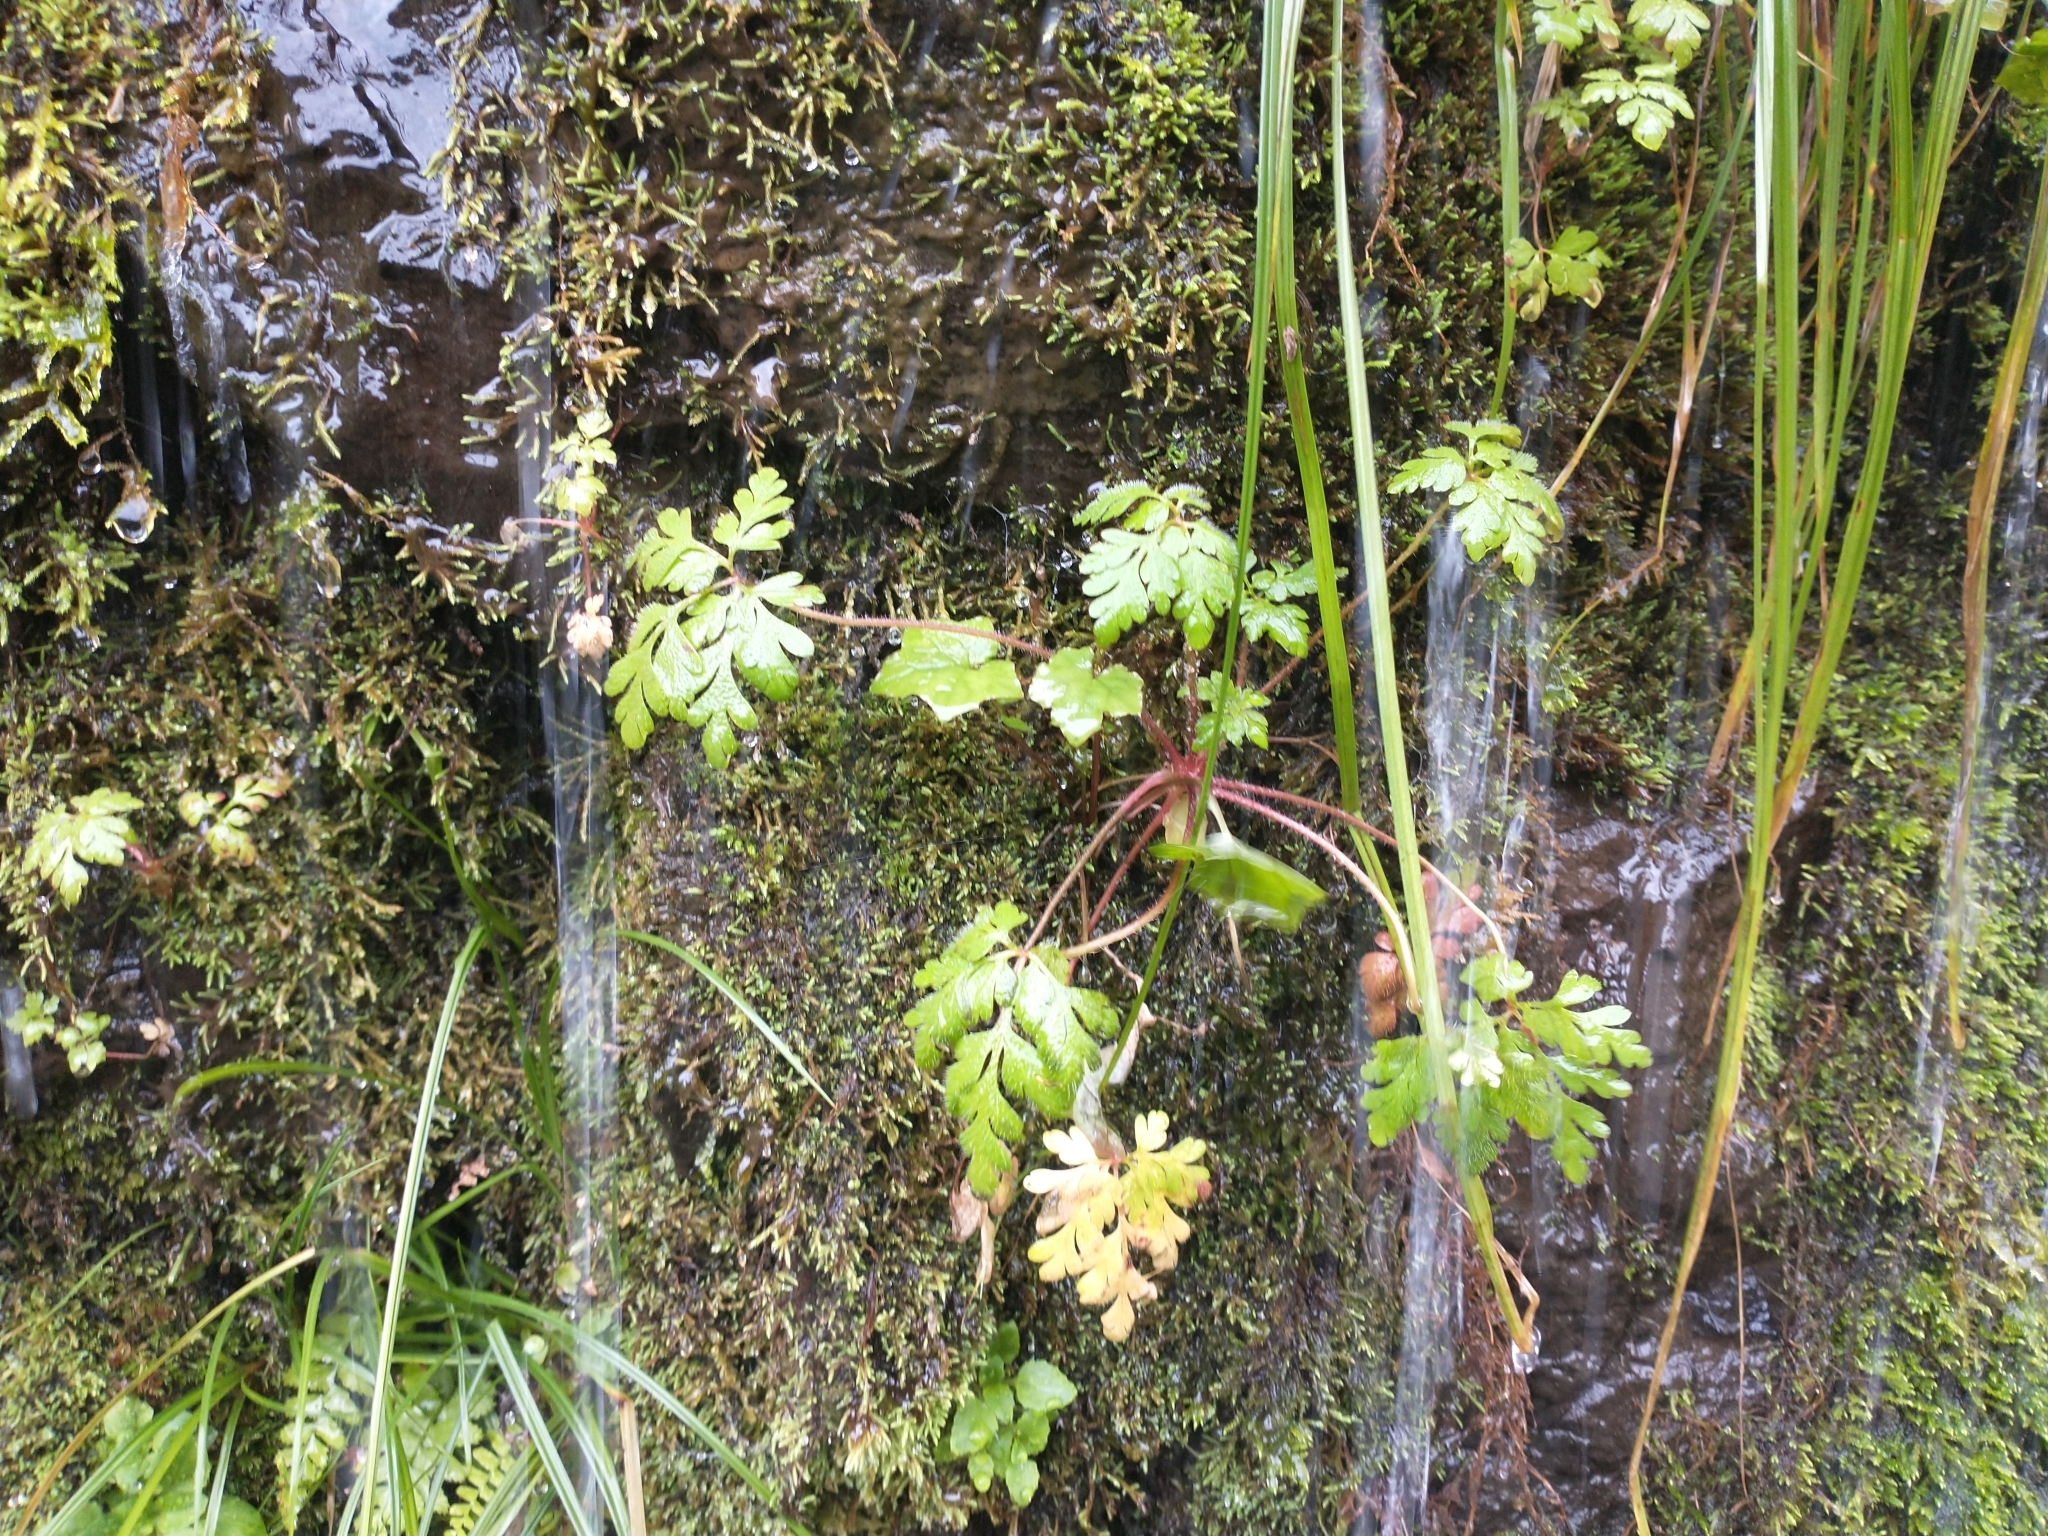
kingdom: Plantae
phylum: Tracheophyta
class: Magnoliopsida
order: Geraniales
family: Geraniaceae
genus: Geranium
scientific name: Geranium robertianum
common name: Herb-robert
